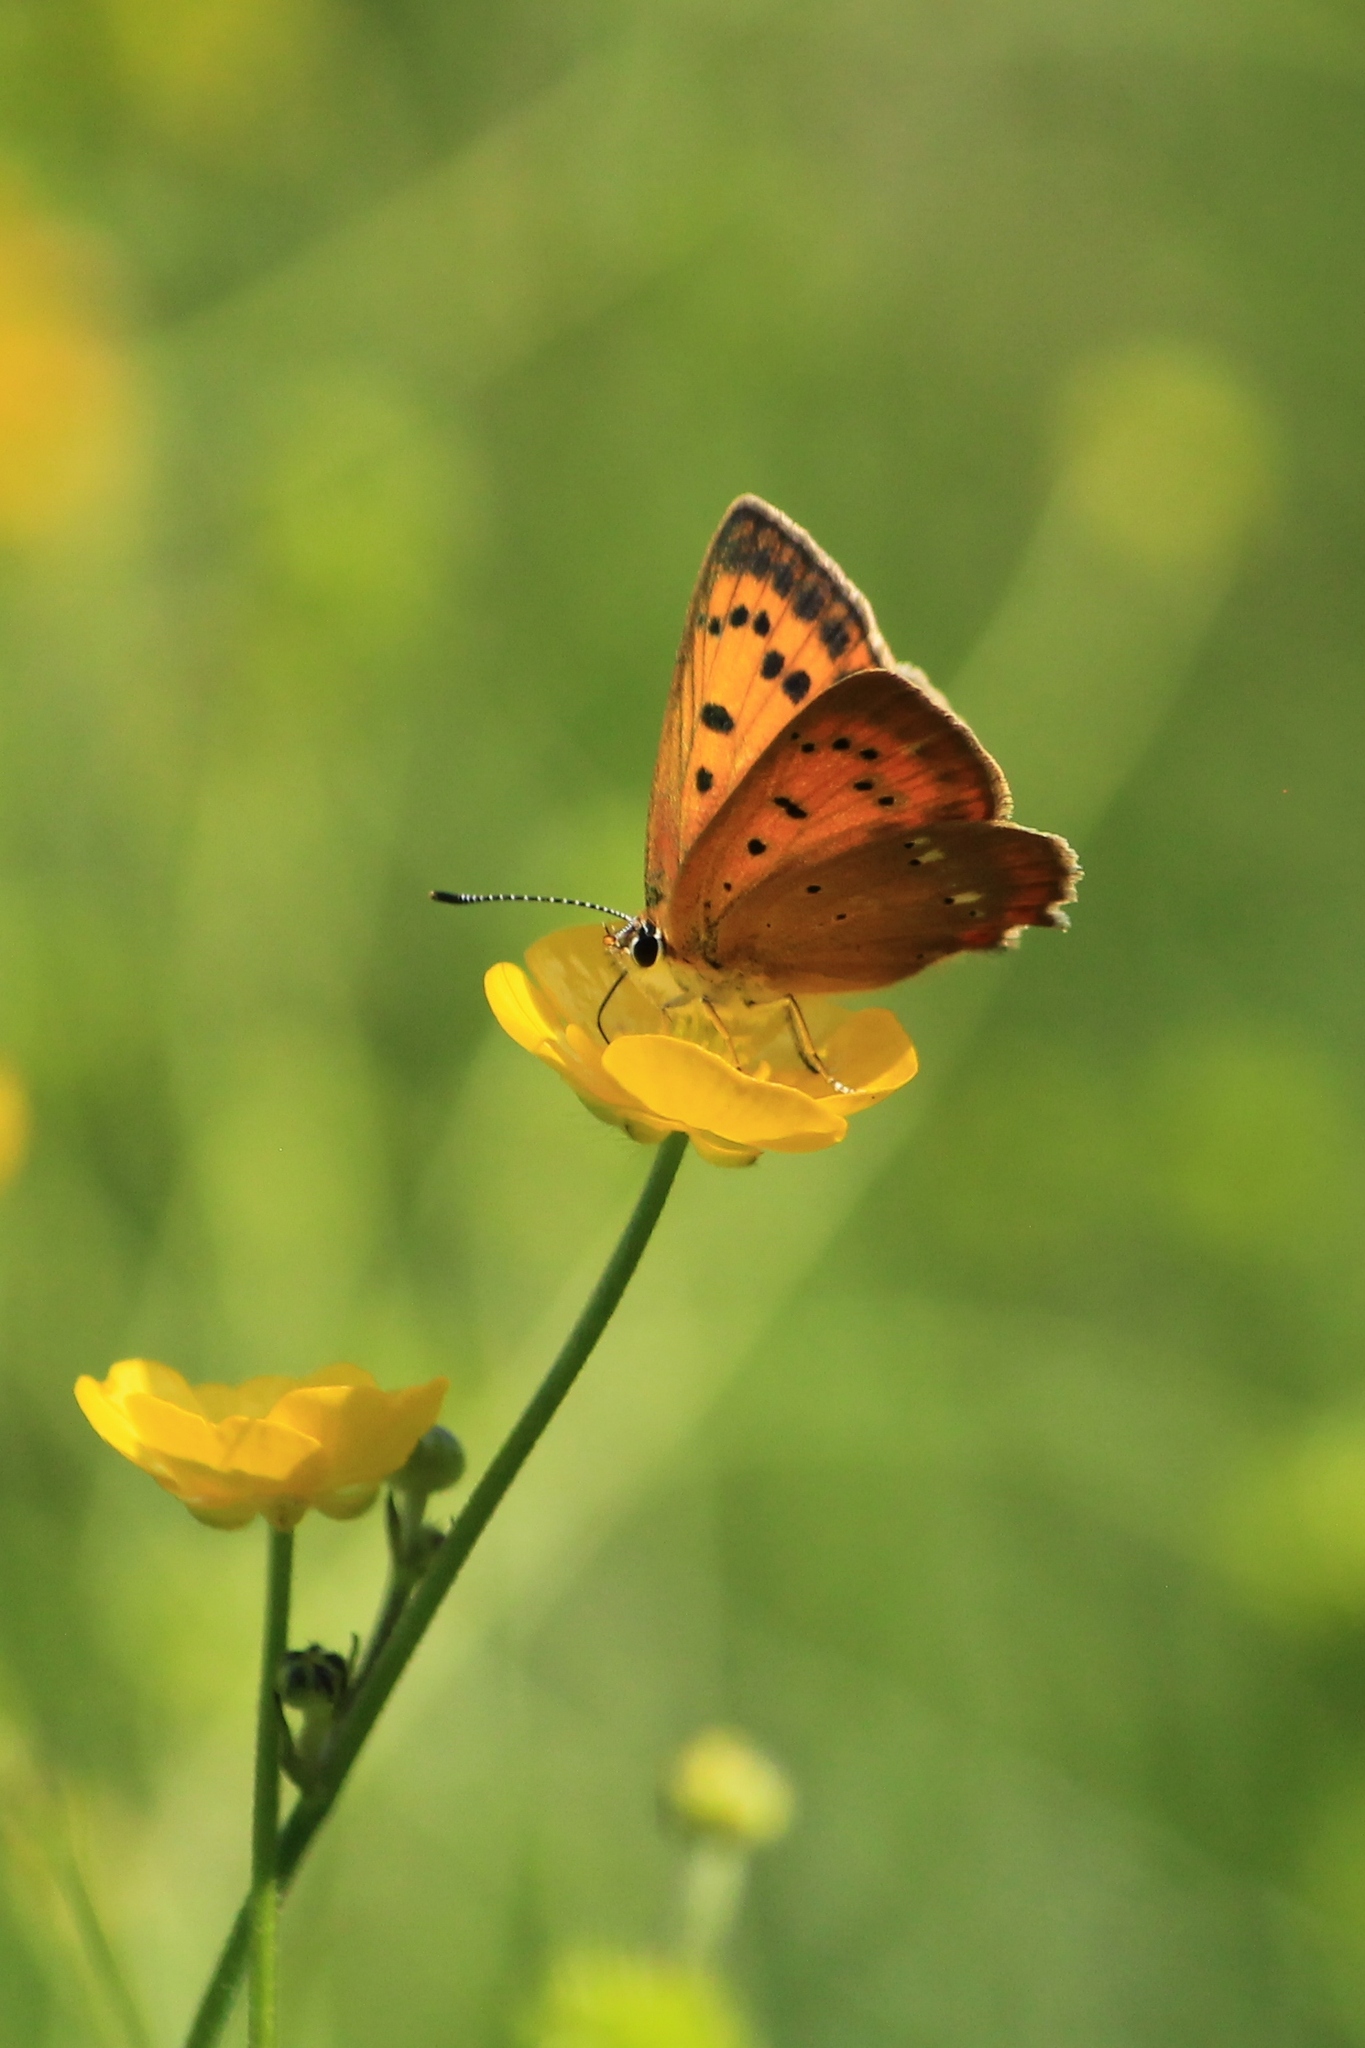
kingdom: Animalia
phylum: Arthropoda
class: Insecta
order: Lepidoptera
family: Lycaenidae
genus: Lycaena
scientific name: Lycaena virgaureae
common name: Scarce copper
